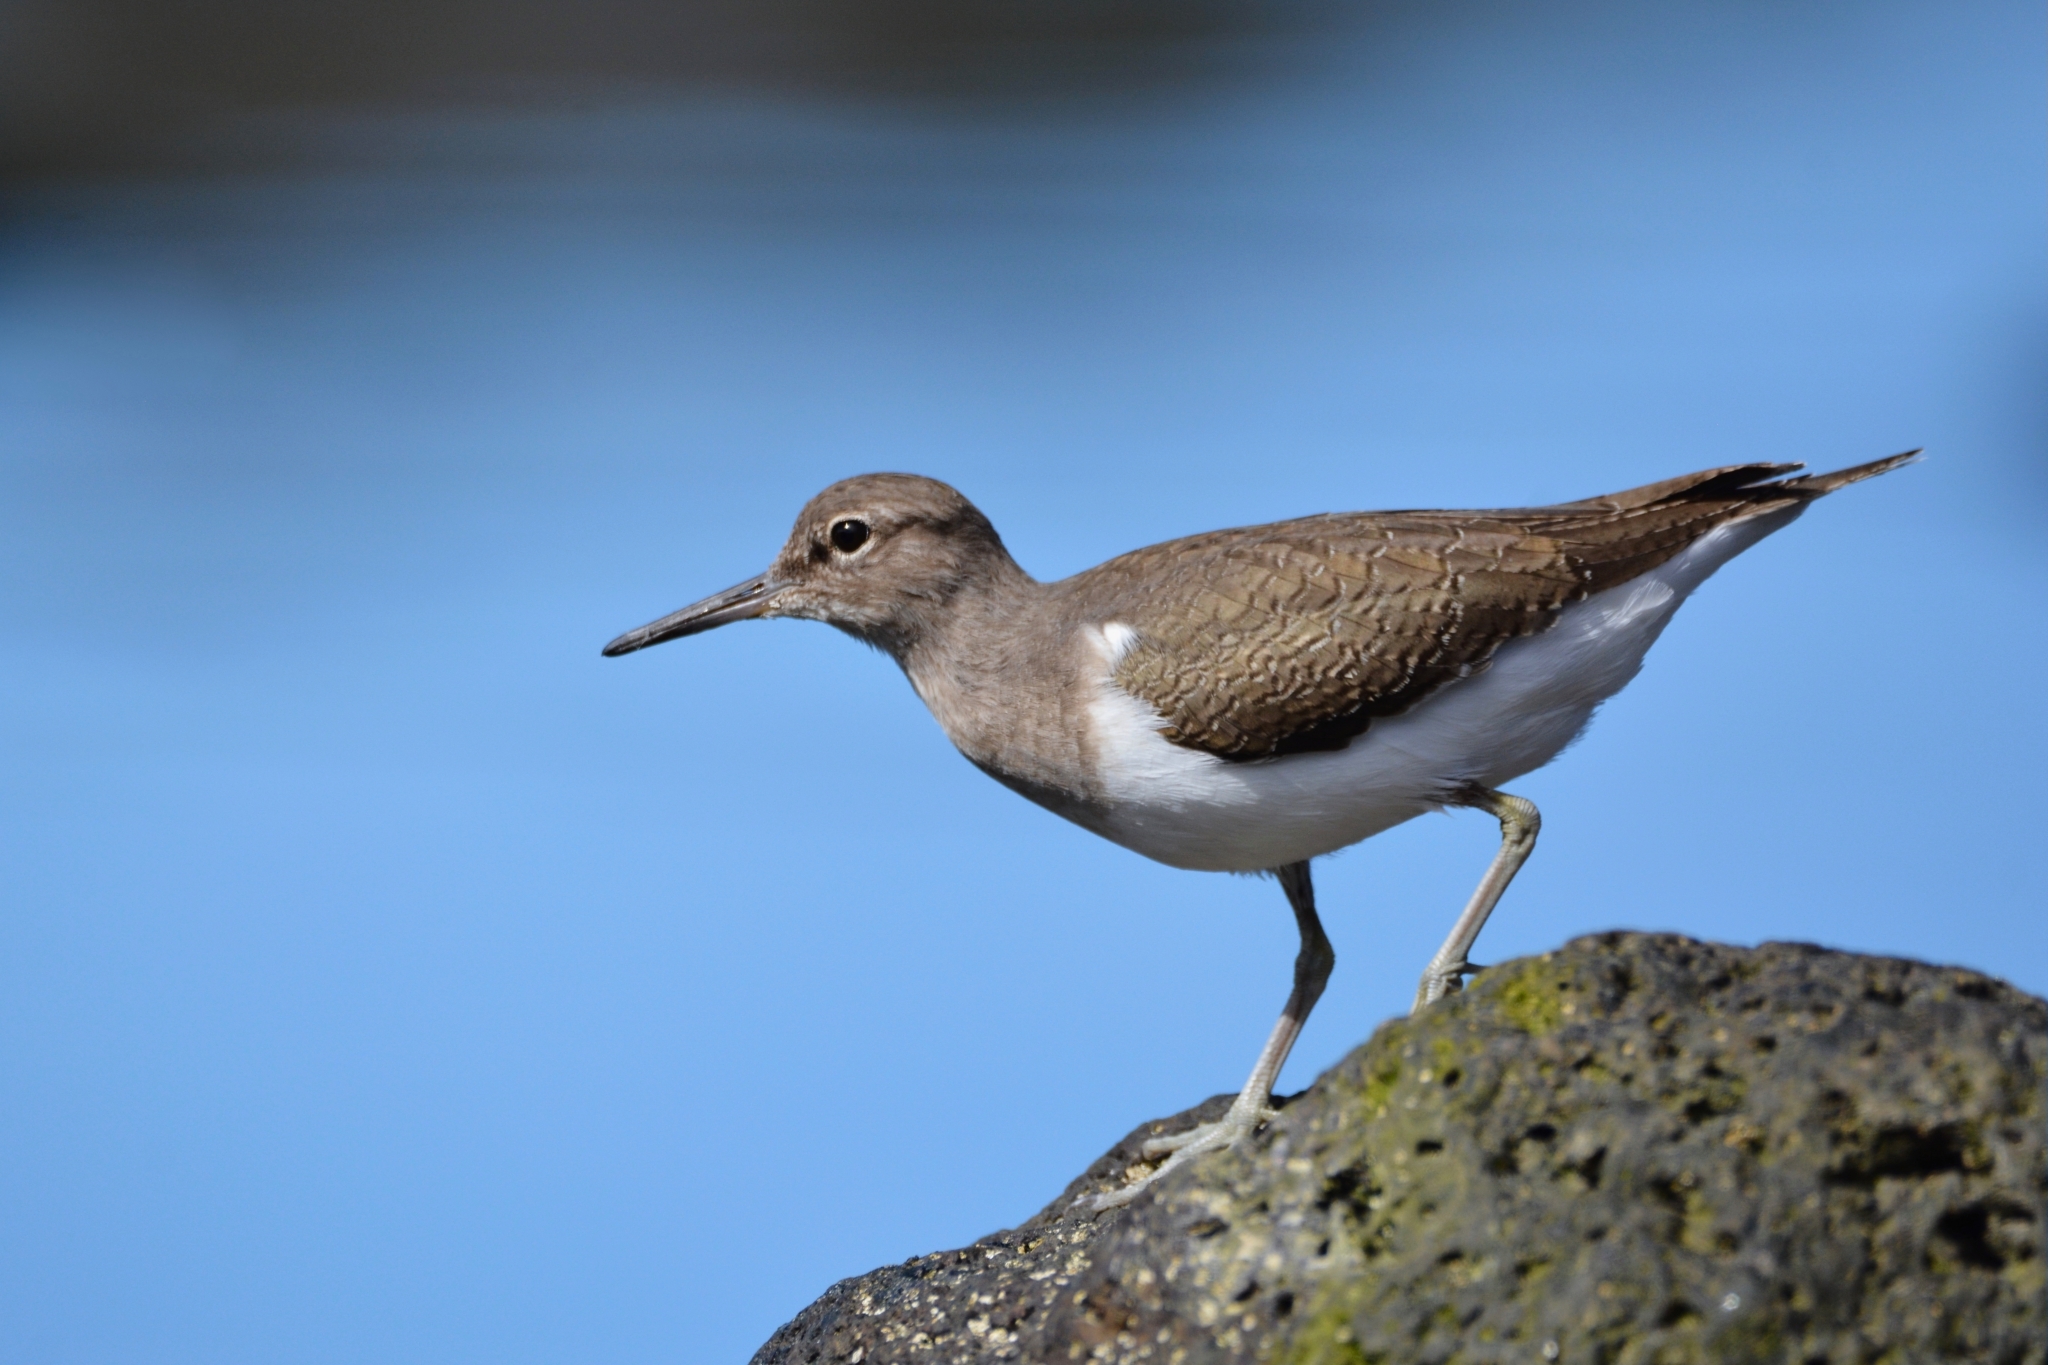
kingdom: Animalia
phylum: Chordata
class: Aves
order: Charadriiformes
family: Scolopacidae
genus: Actitis
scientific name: Actitis hypoleucos
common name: Common sandpiper
